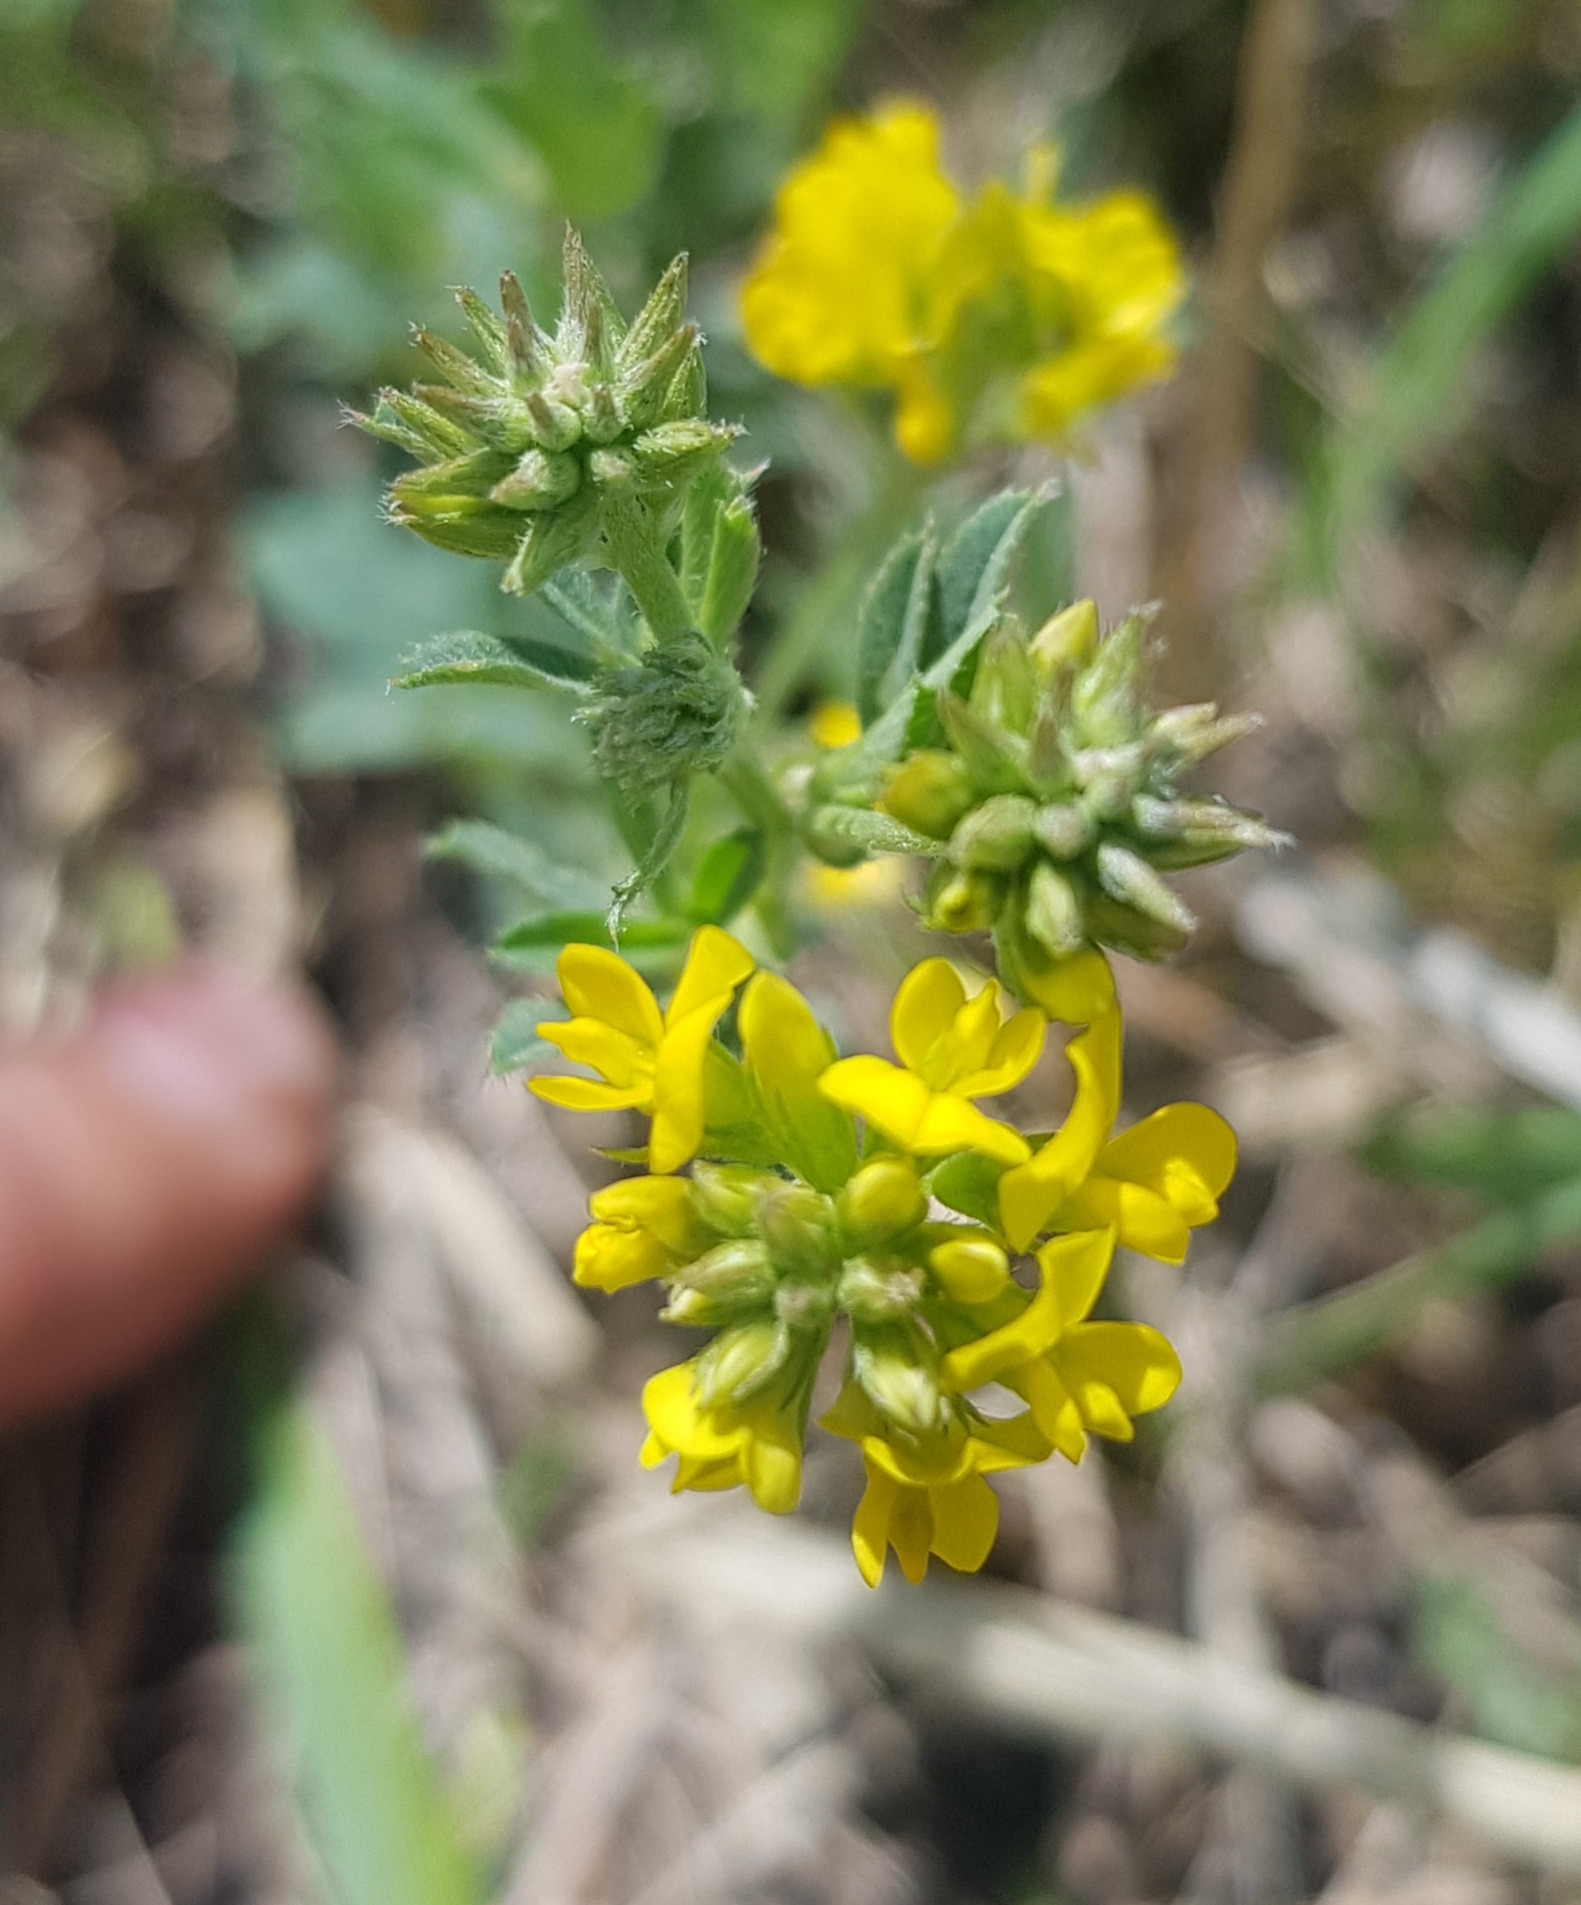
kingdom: Plantae
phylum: Tracheophyta
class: Magnoliopsida
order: Fabales
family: Fabaceae
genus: Medicago
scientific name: Medicago falcata
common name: Sickle medick
